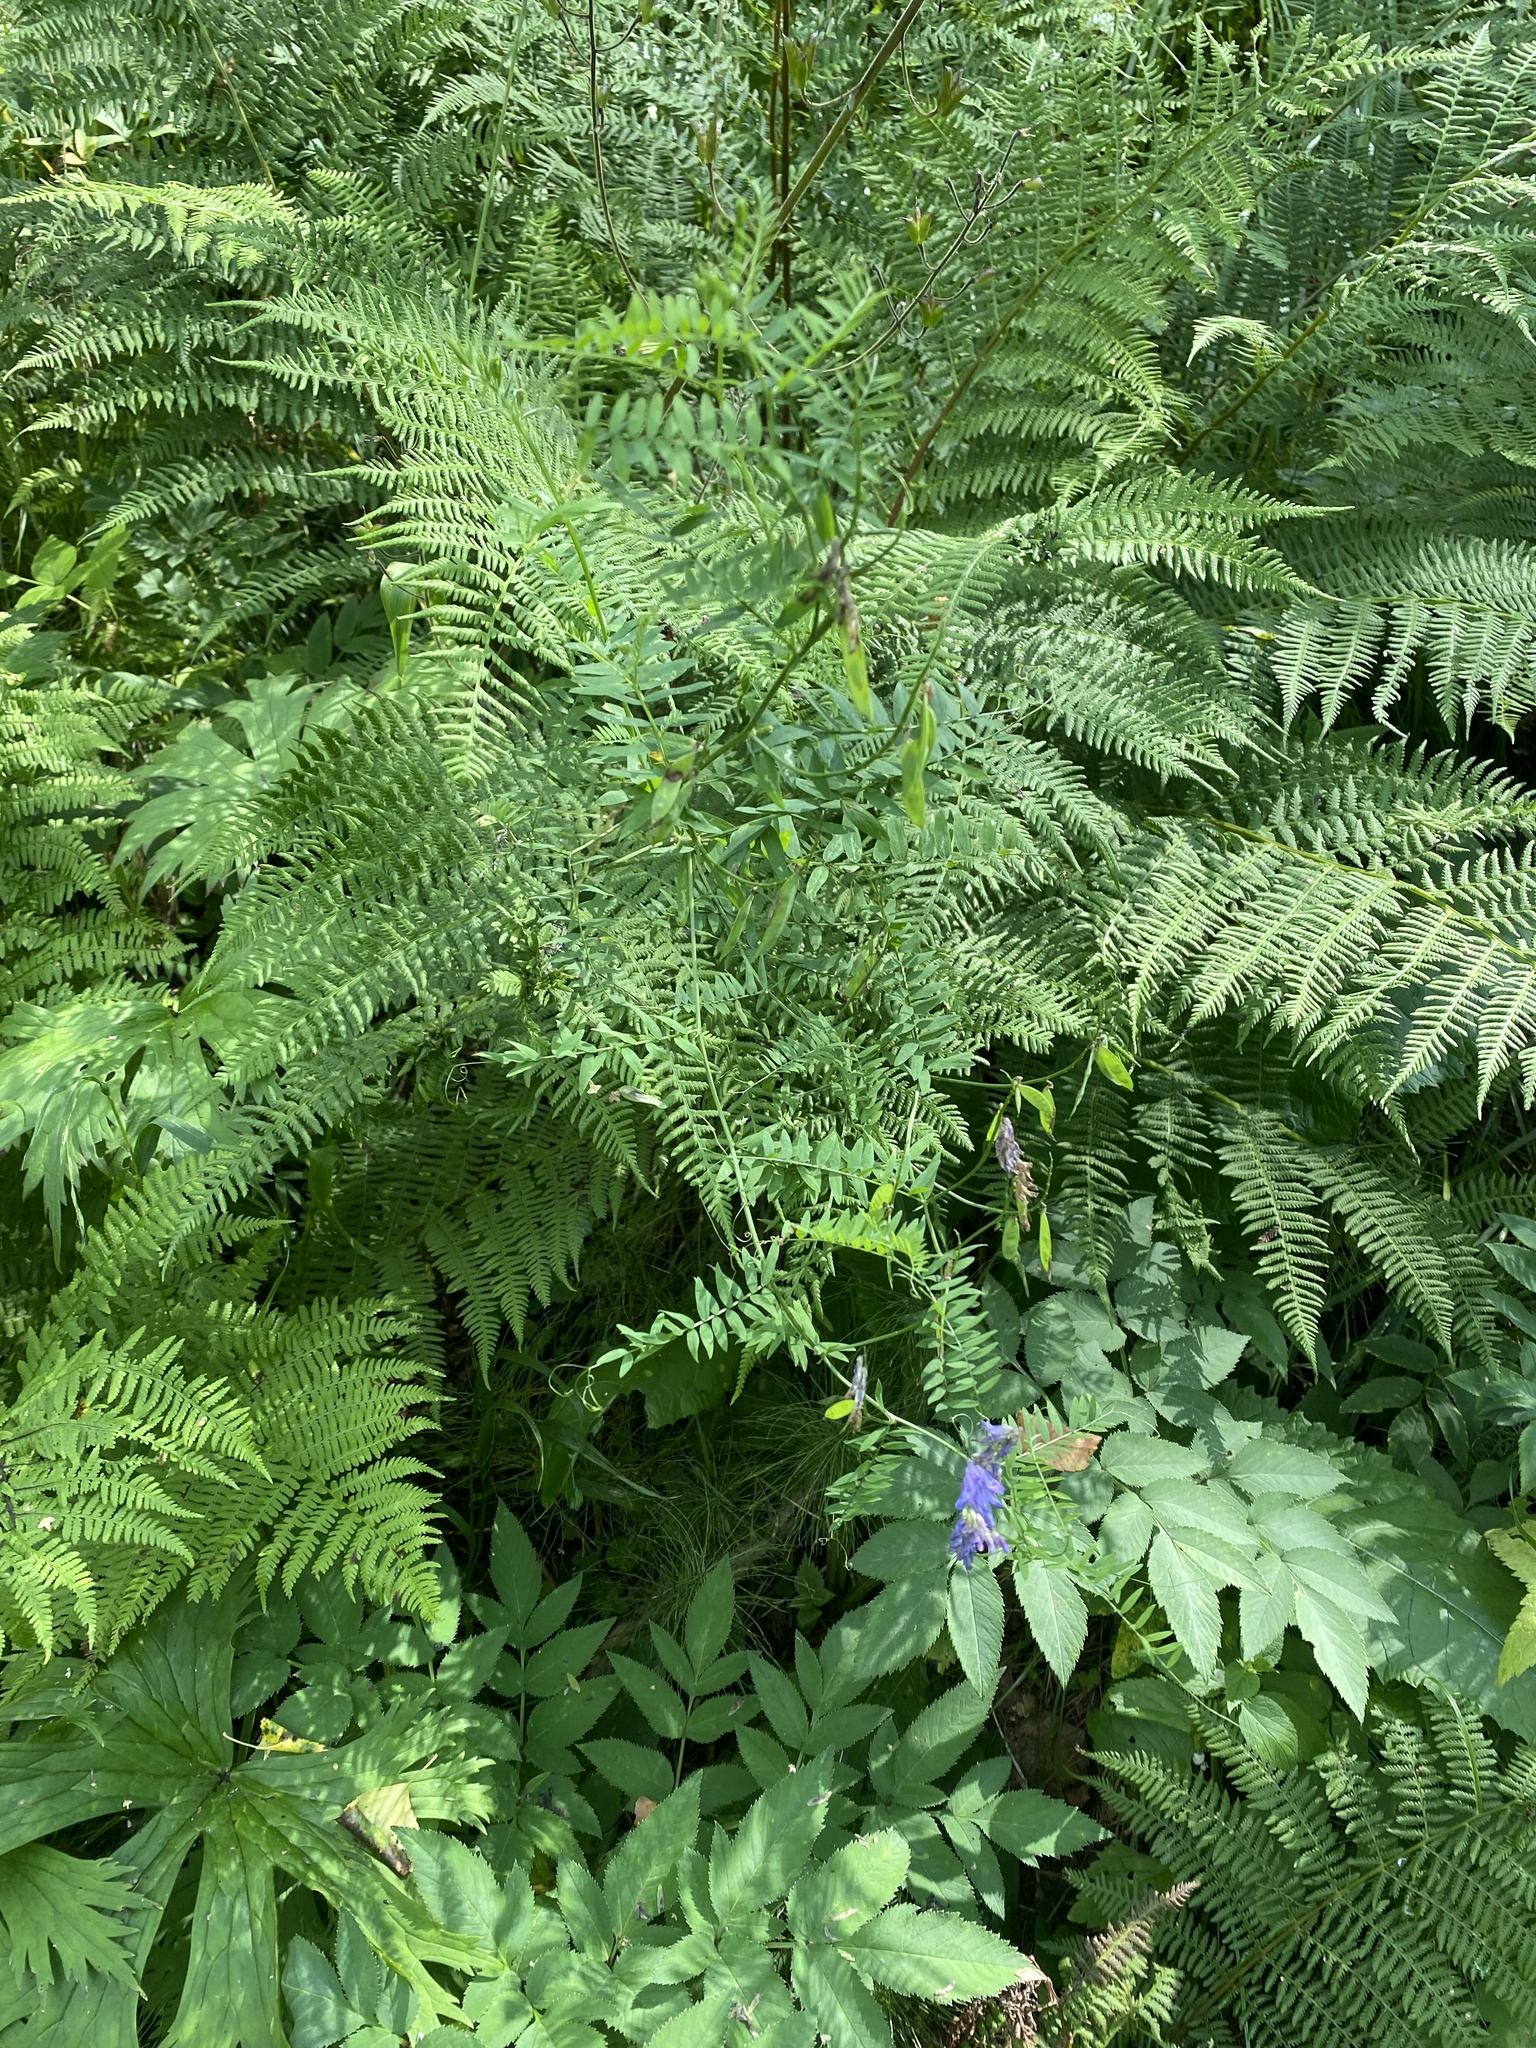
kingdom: Plantae
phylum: Tracheophyta
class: Magnoliopsida
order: Fabales
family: Fabaceae
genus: Vicia
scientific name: Vicia cracca
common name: Bird vetch
